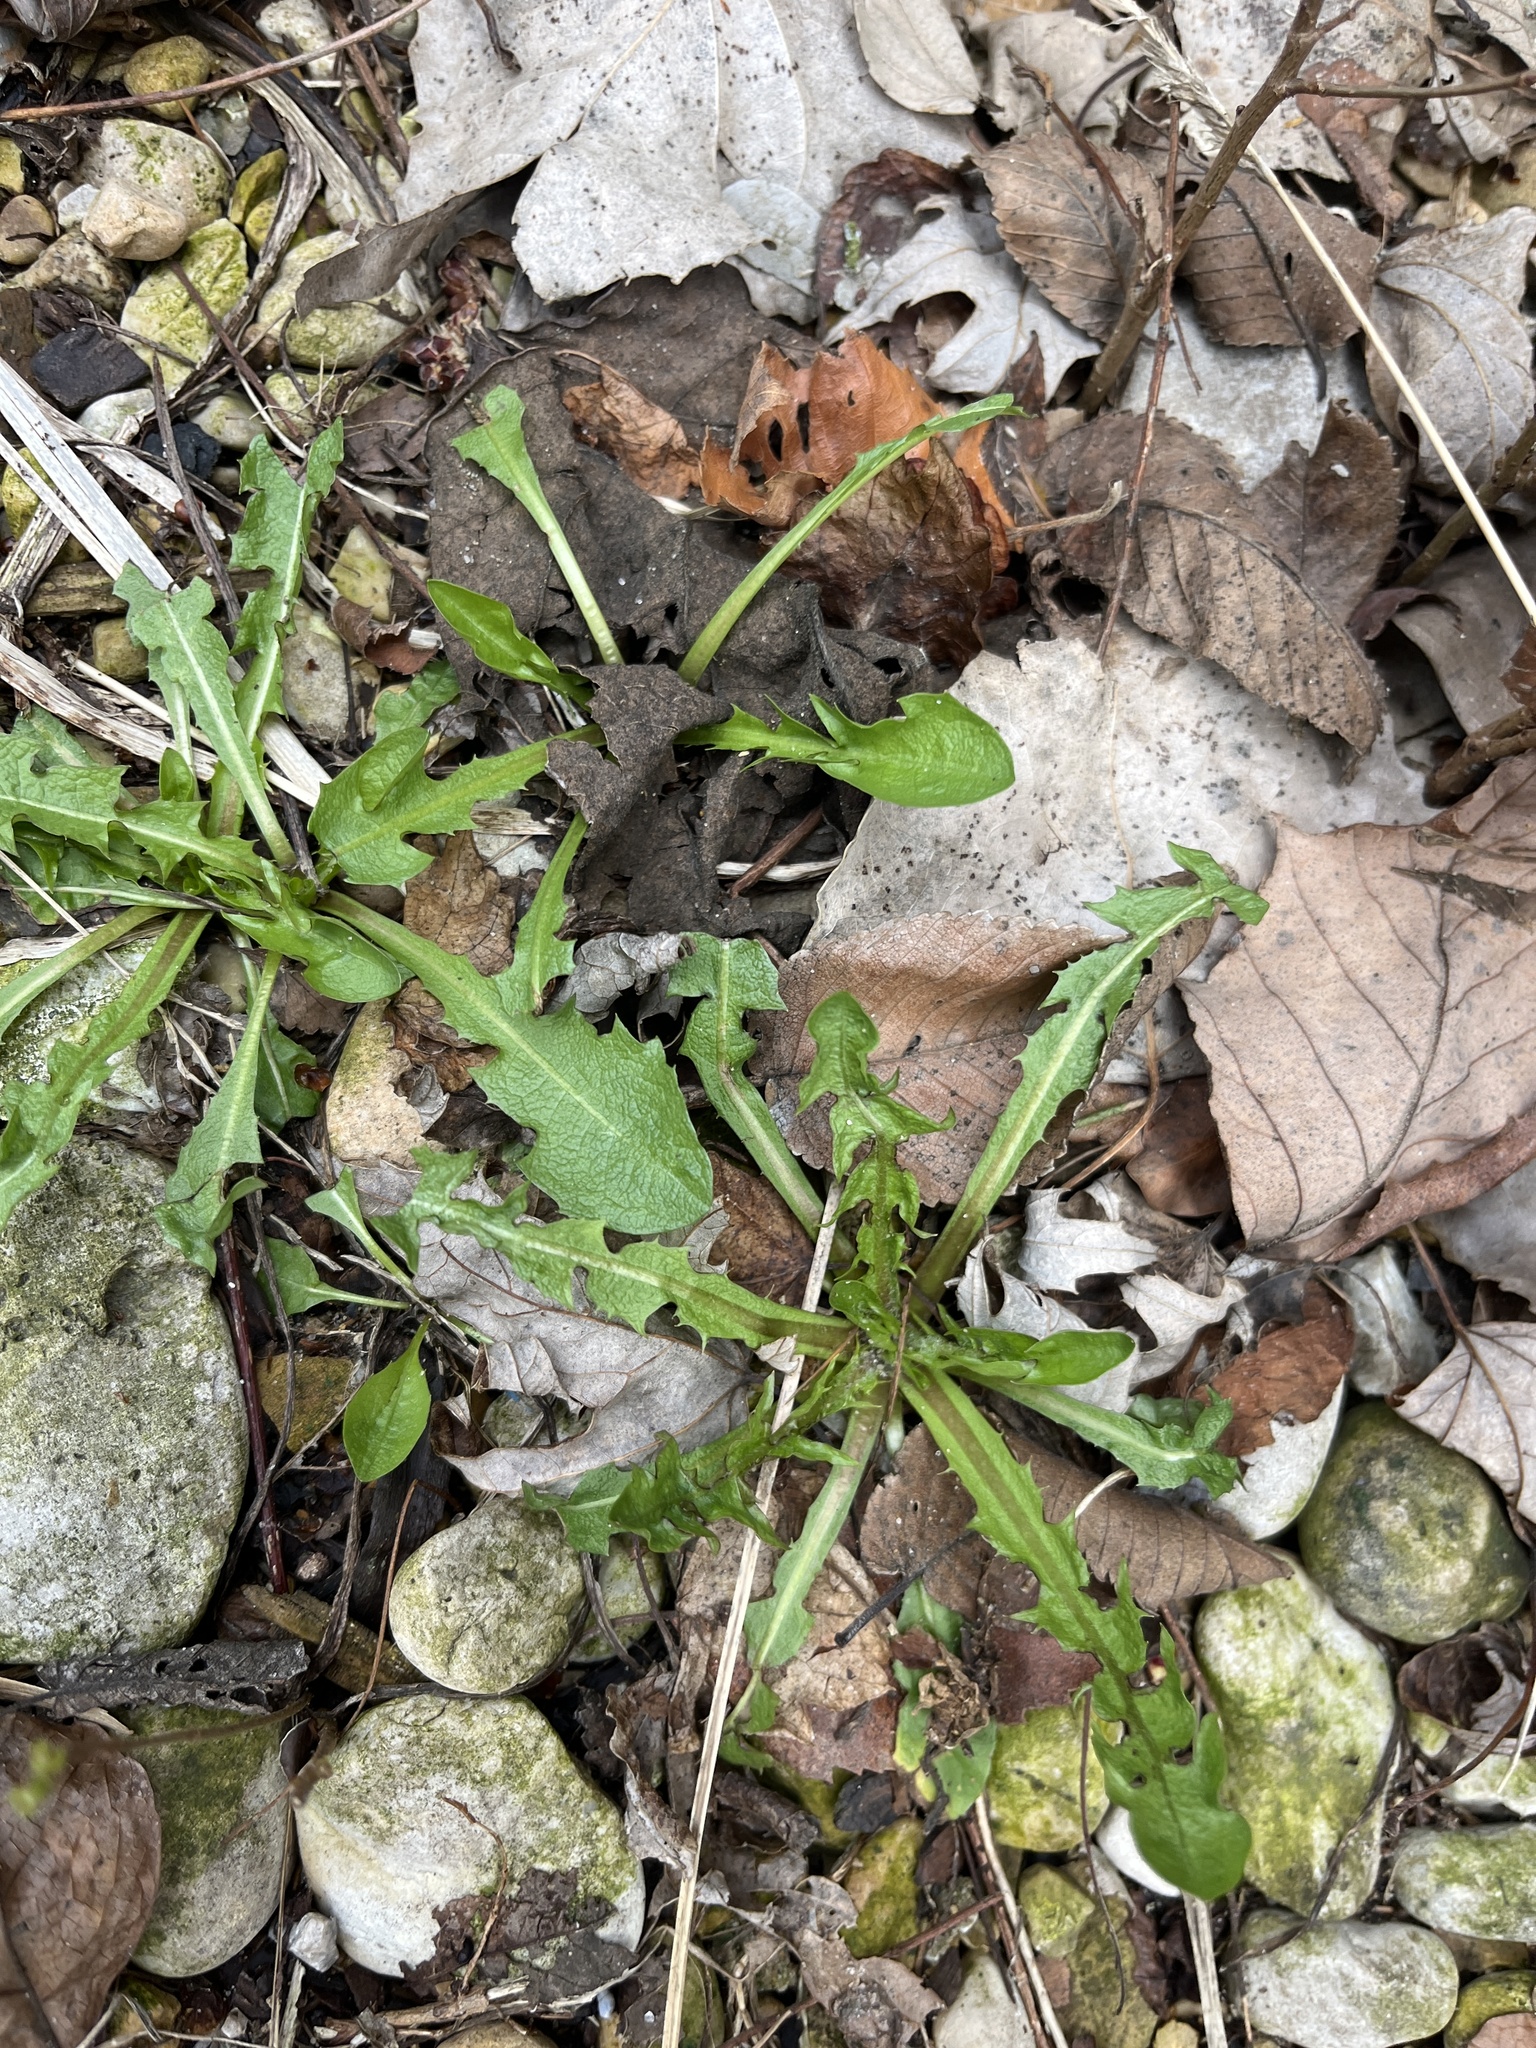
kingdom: Plantae
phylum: Tracheophyta
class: Magnoliopsida
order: Asterales
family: Asteraceae
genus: Taraxacum
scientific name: Taraxacum officinale
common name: Common dandelion
